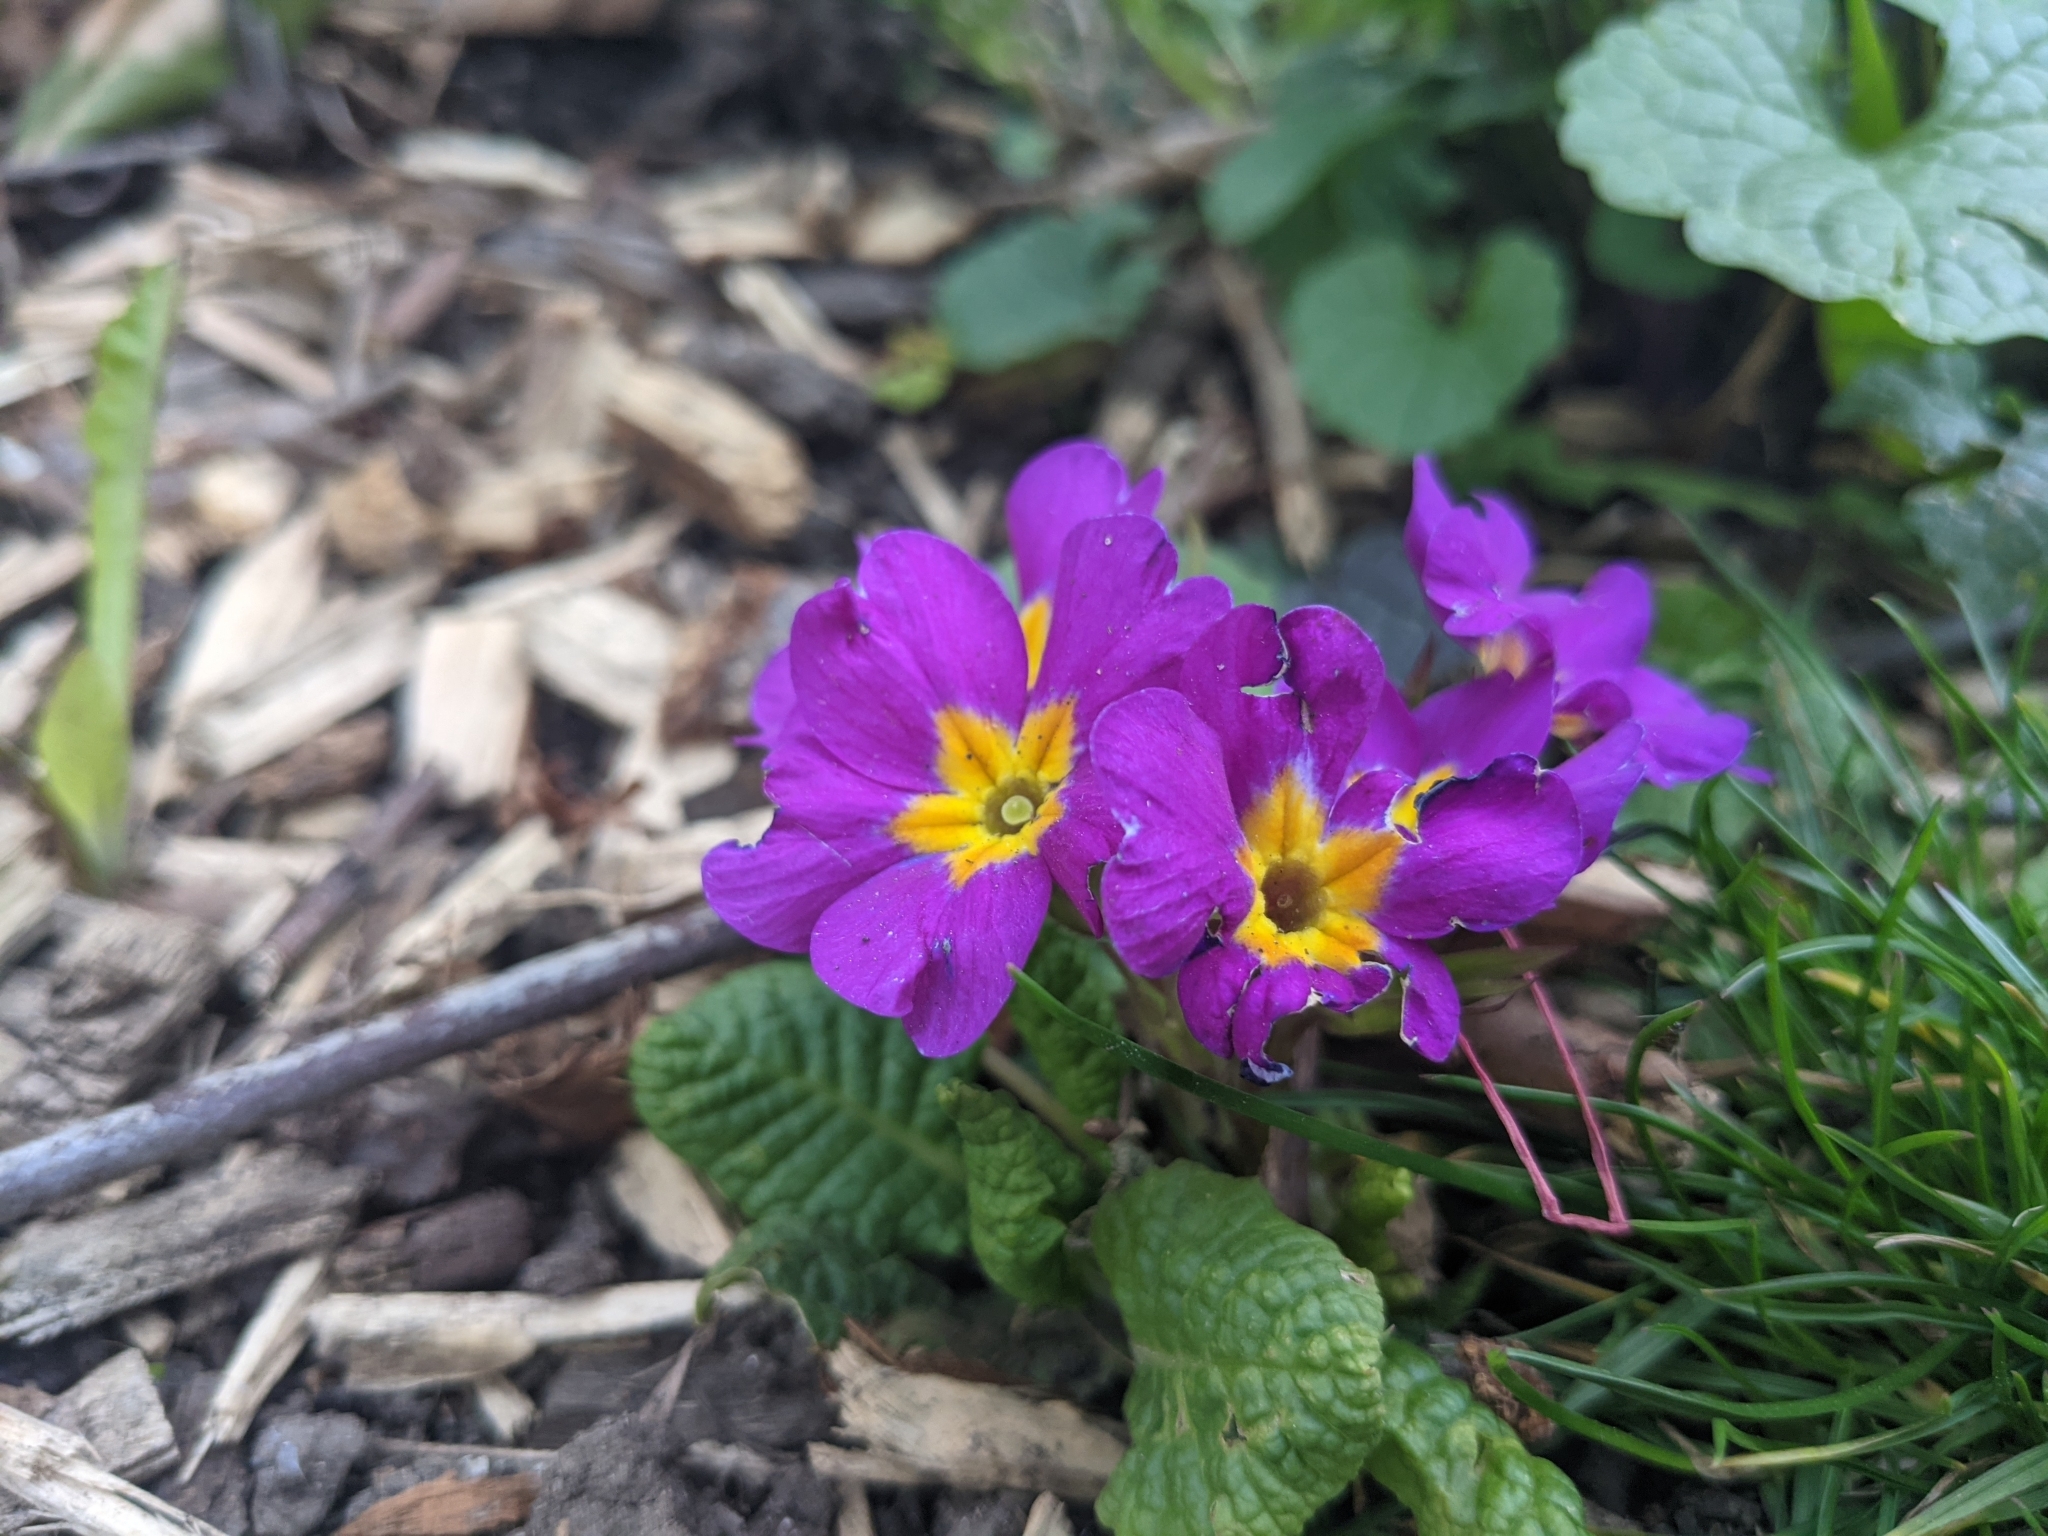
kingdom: Plantae
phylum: Tracheophyta
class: Magnoliopsida
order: Ericales
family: Primulaceae
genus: Primula
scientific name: Primula vulgaris
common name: Primrose
